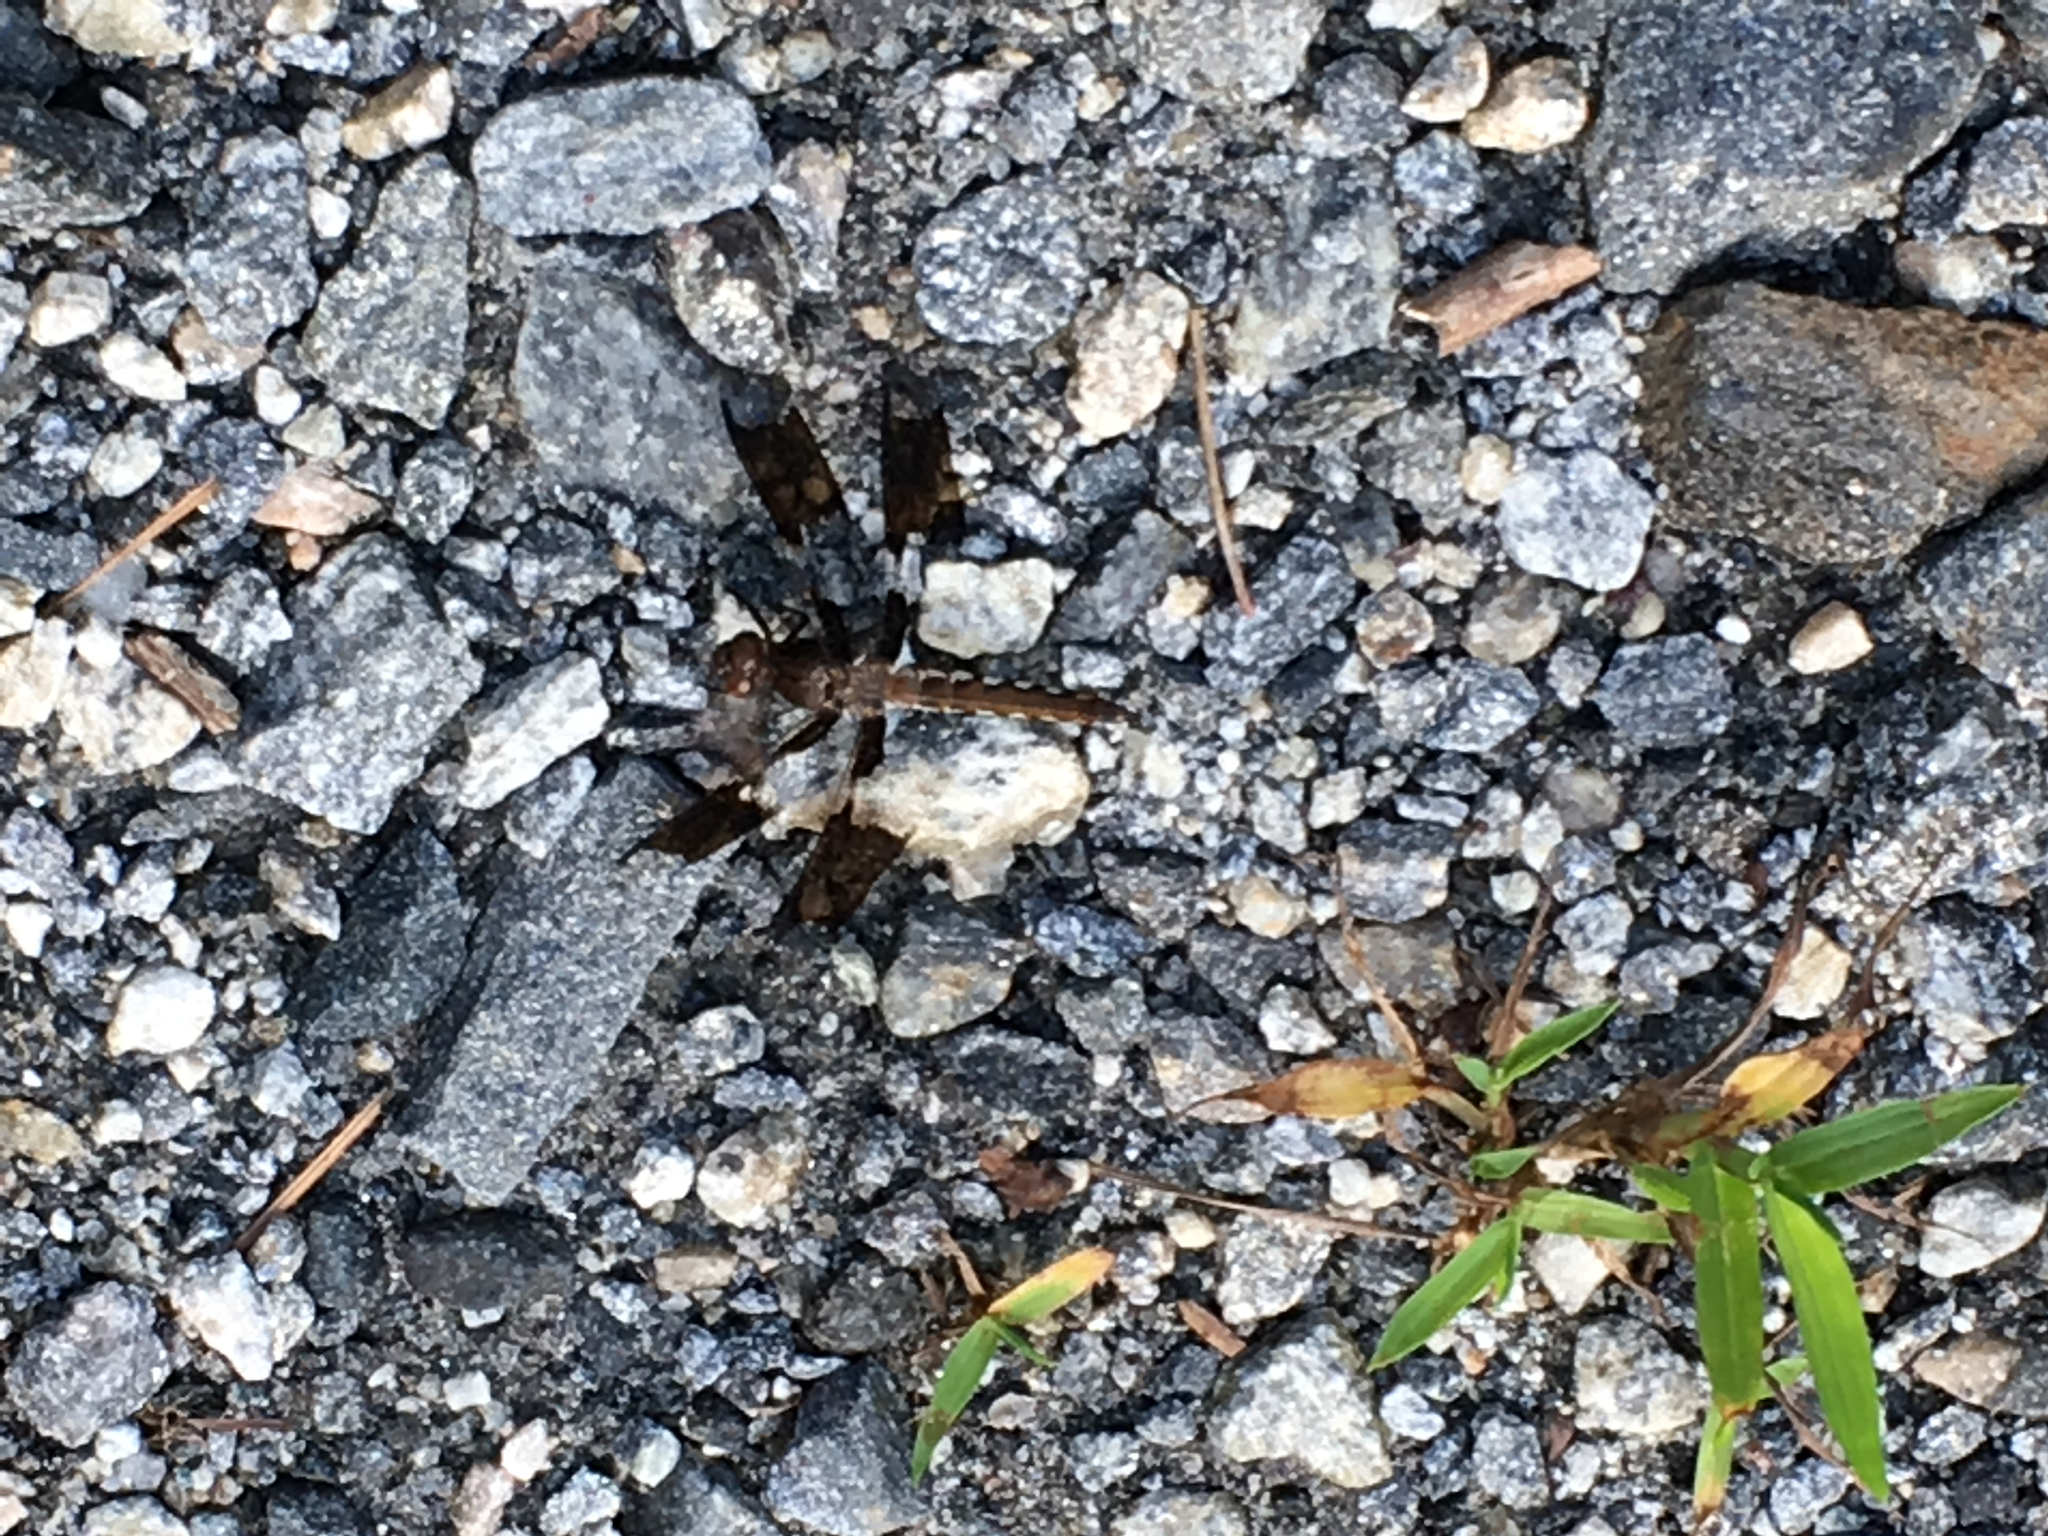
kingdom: Animalia
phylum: Arthropoda
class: Insecta
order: Odonata
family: Libellulidae
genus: Plathemis
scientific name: Plathemis lydia
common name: Common whitetail
